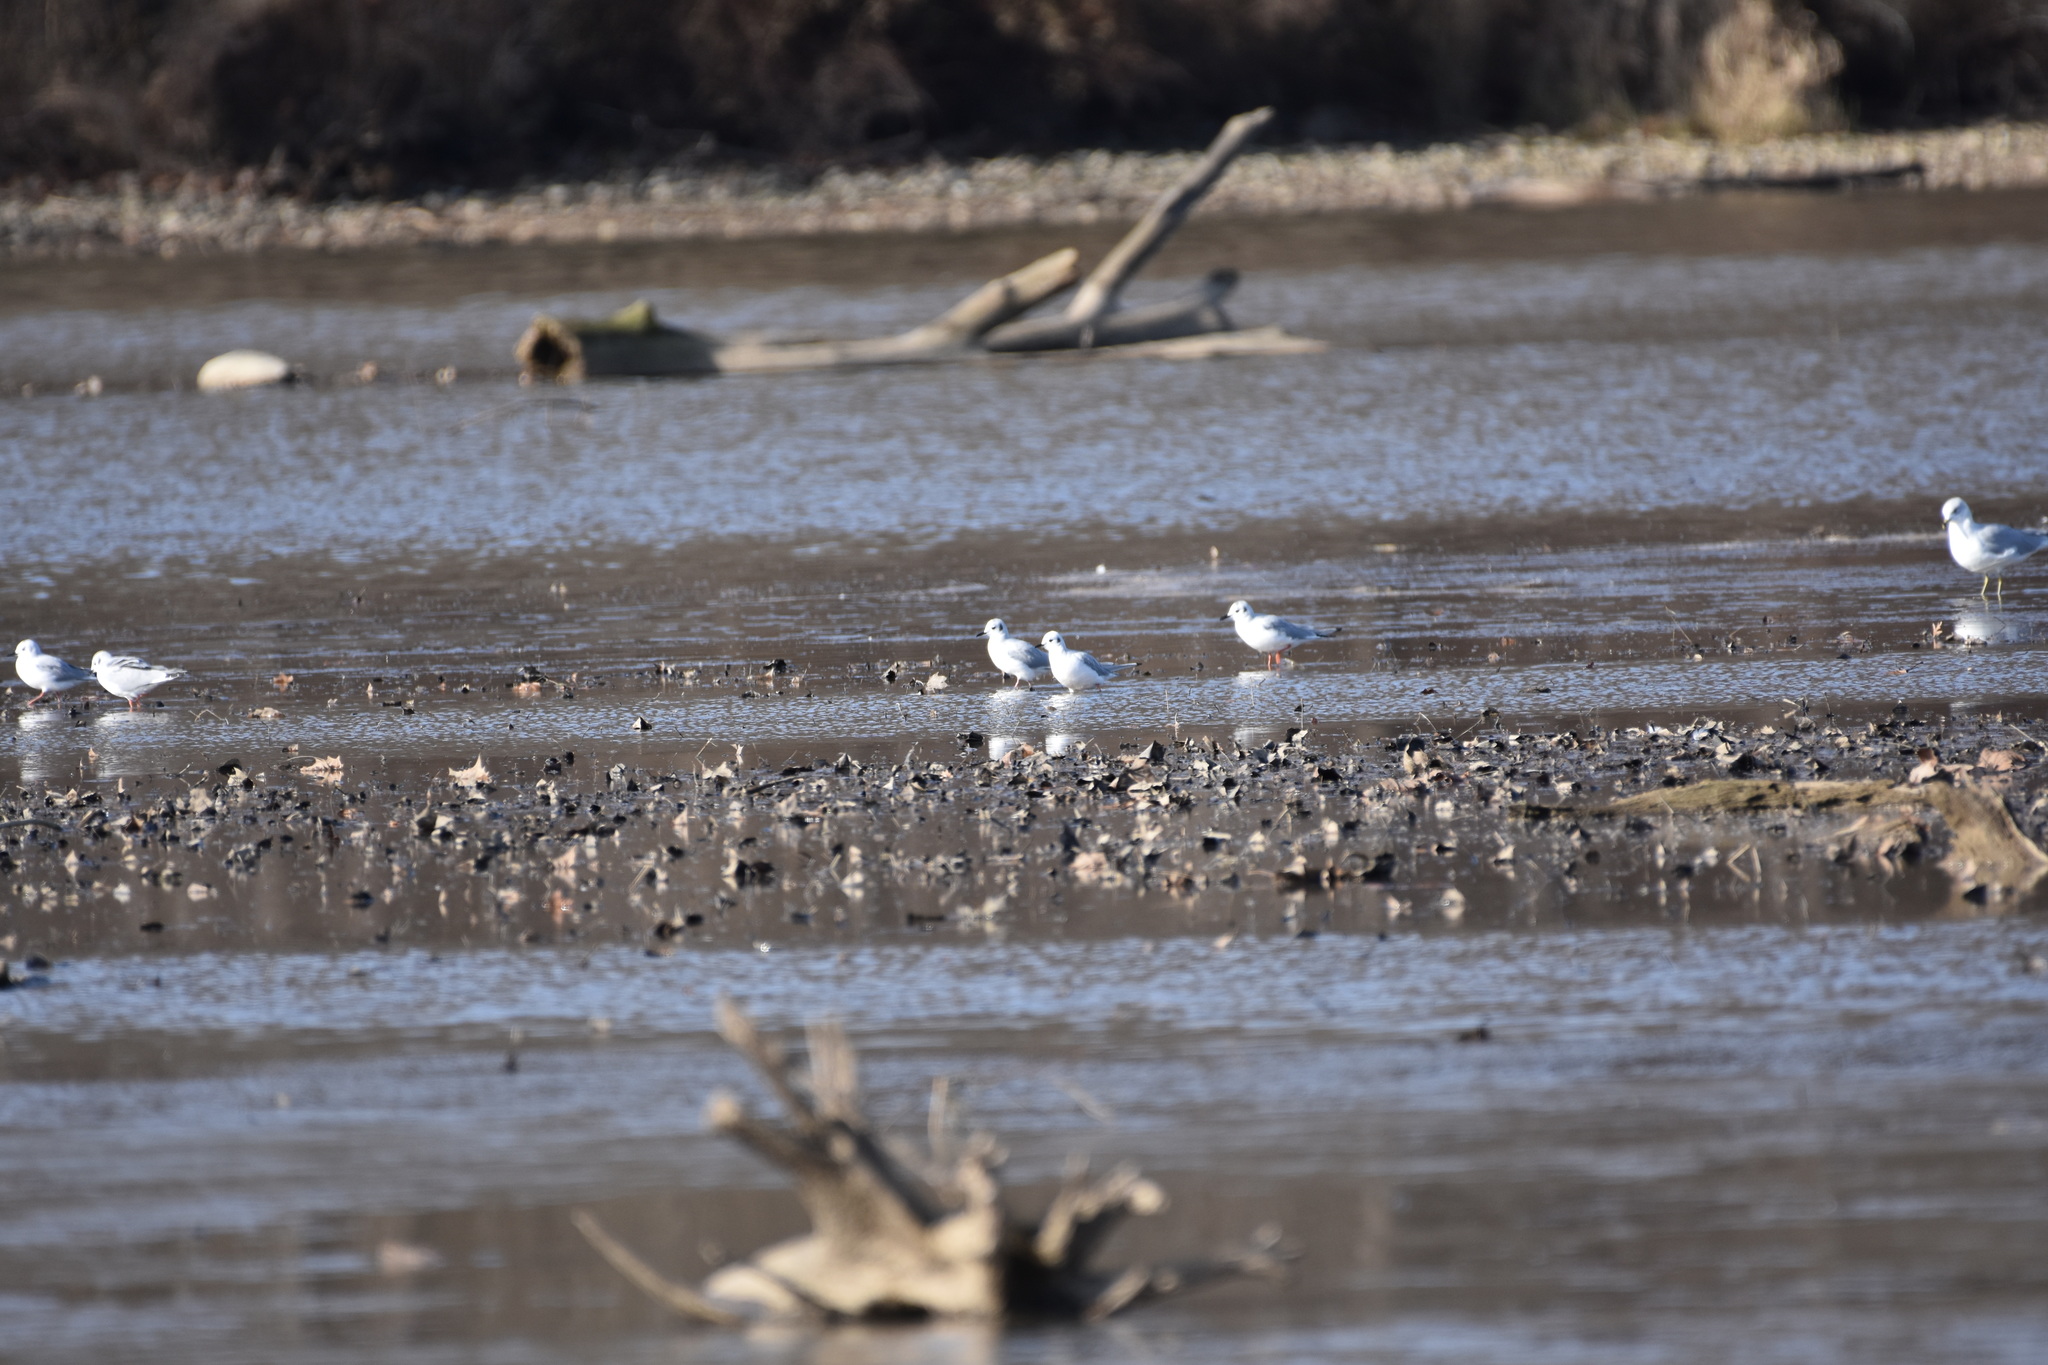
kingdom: Animalia
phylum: Chordata
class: Aves
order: Charadriiformes
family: Laridae
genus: Chroicocephalus
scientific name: Chroicocephalus philadelphia
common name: Bonaparte's gull
